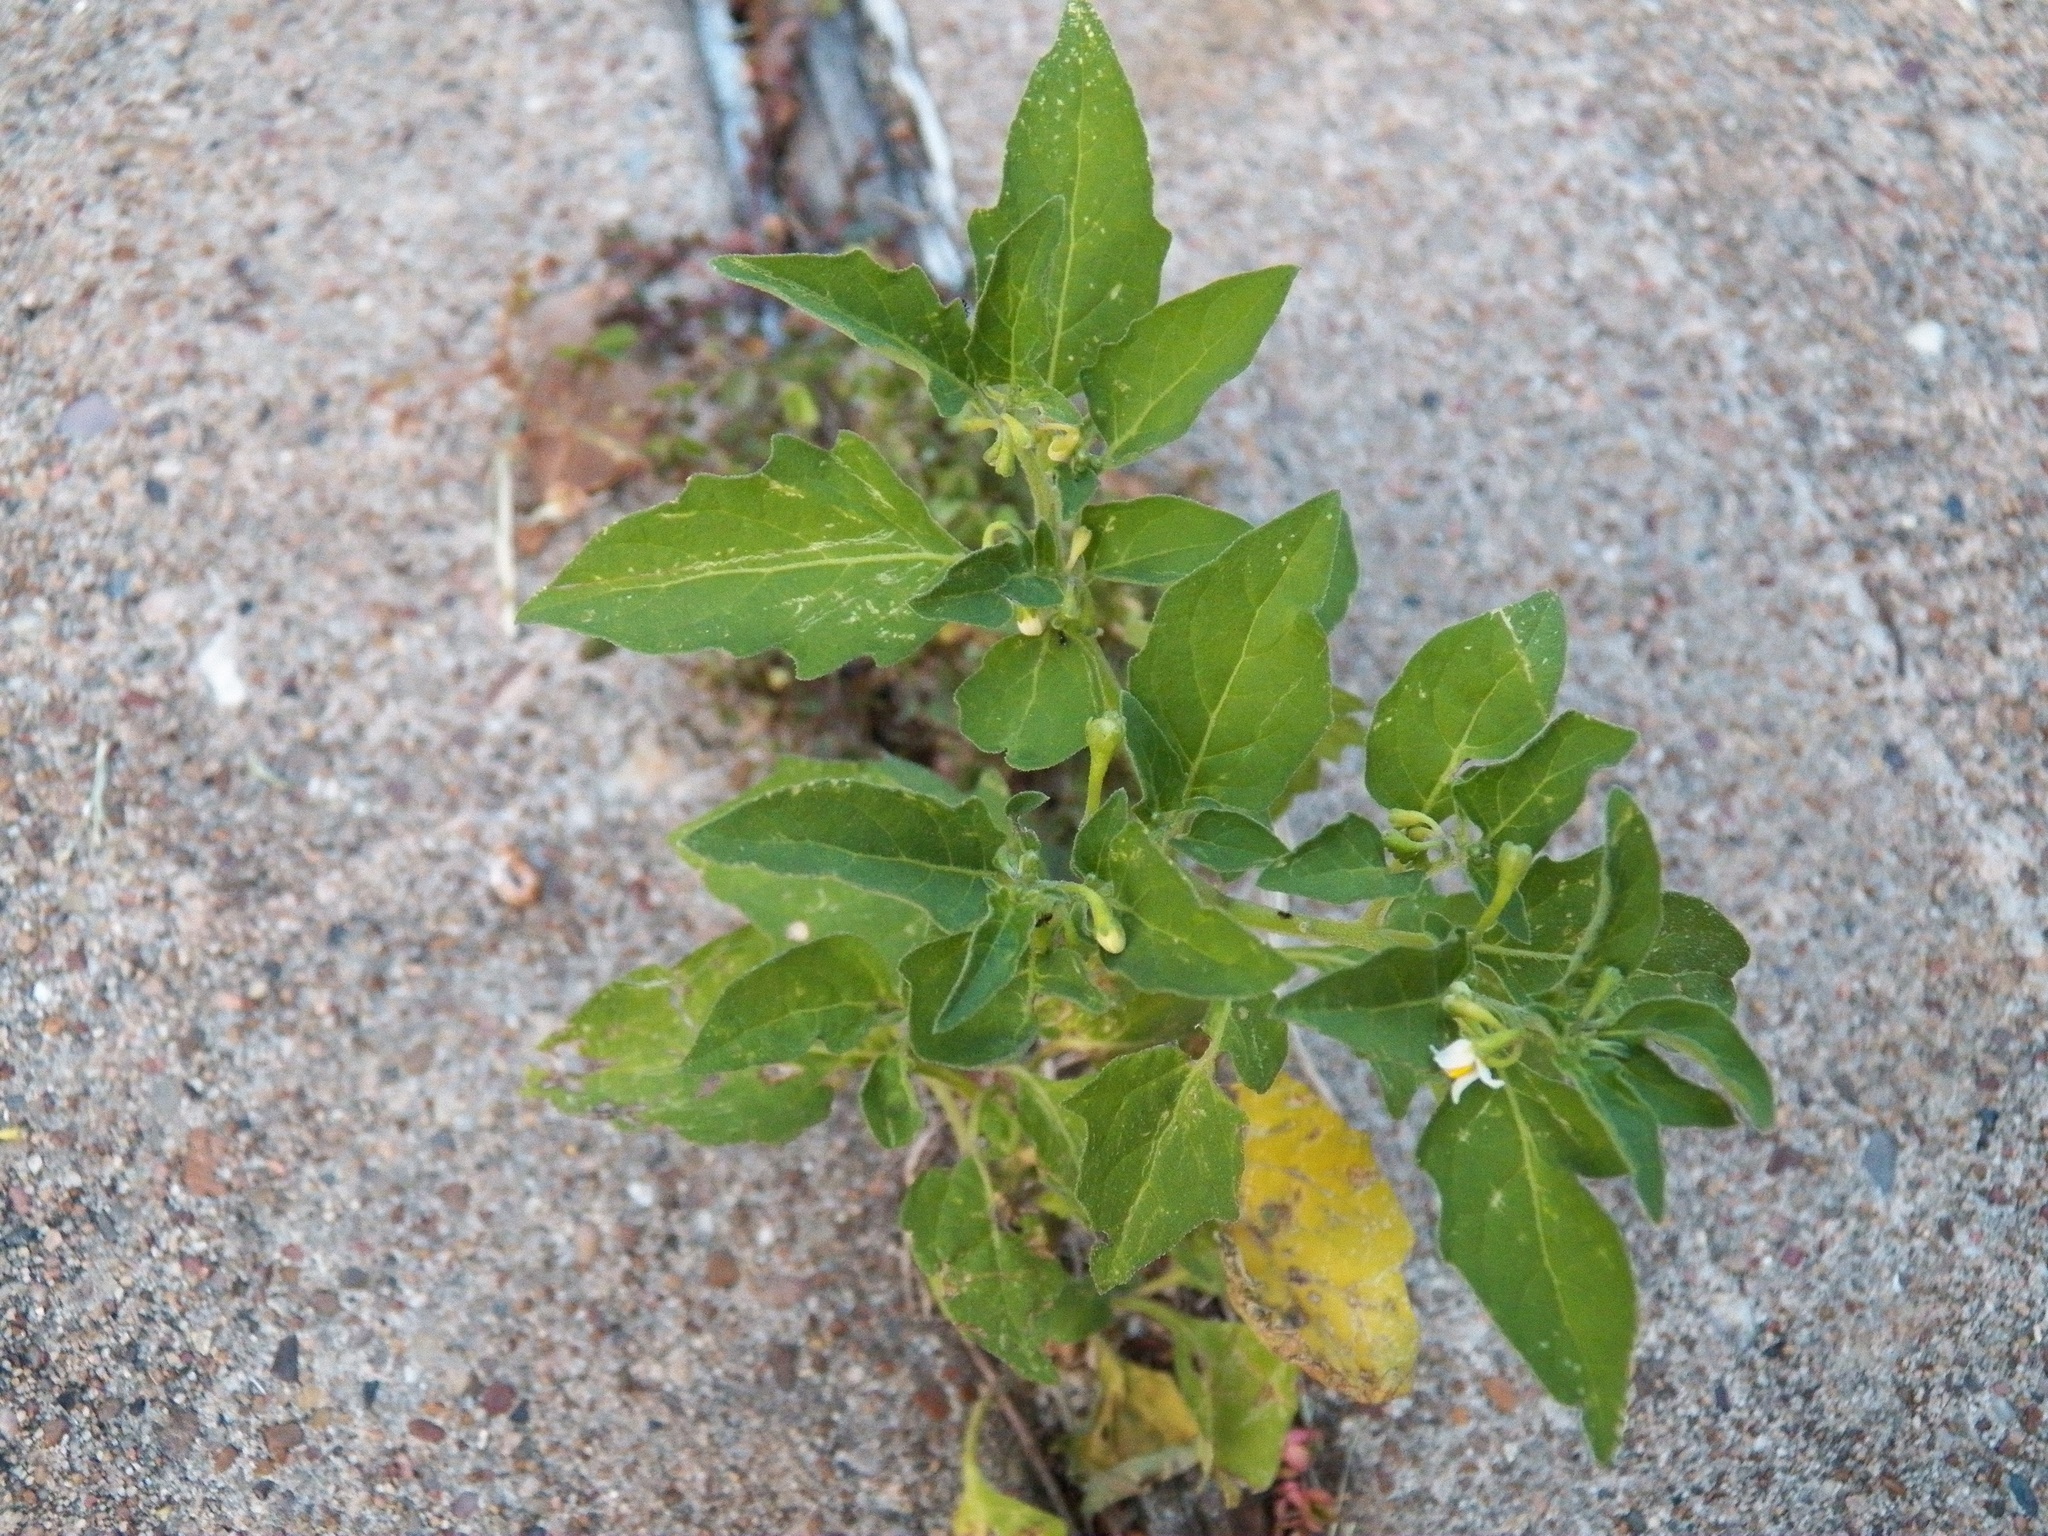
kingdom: Plantae
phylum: Tracheophyta
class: Magnoliopsida
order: Solanales
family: Solanaceae
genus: Solanum
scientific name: Solanum americanum
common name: American black nightshade
